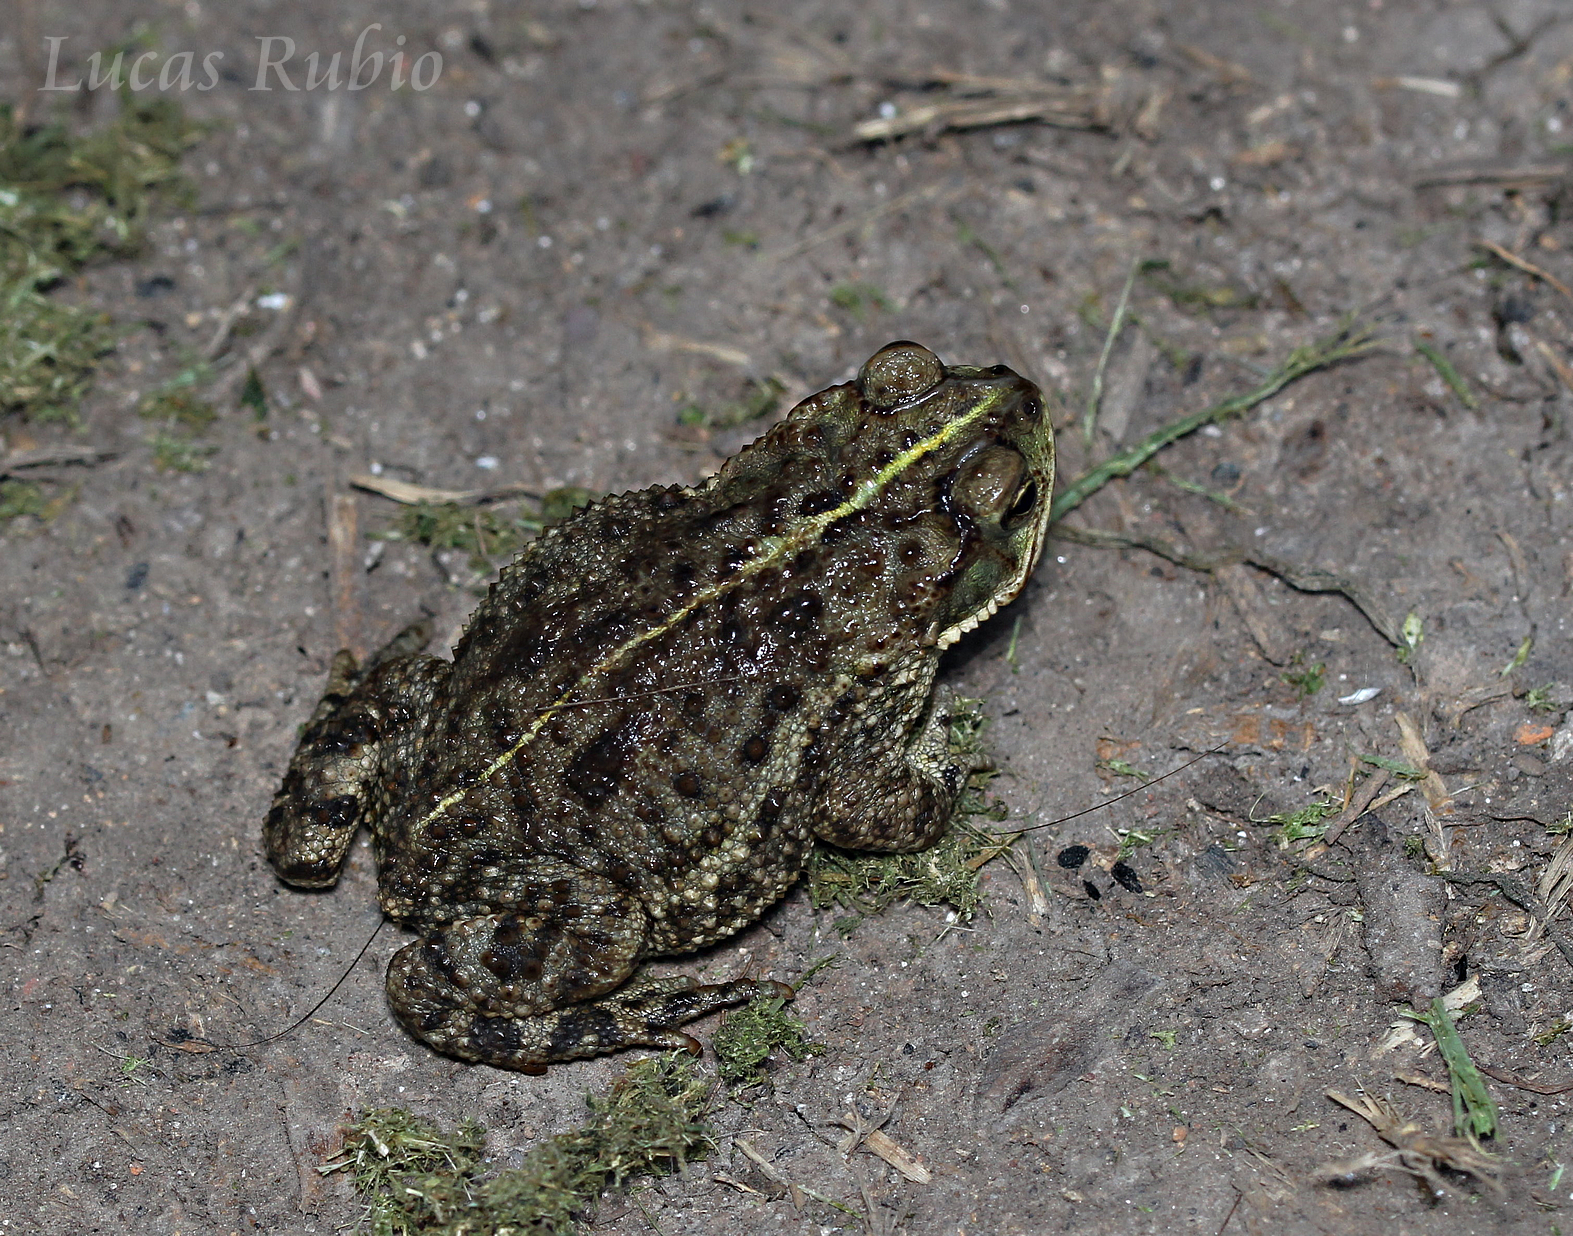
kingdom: Animalia
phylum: Chordata
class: Amphibia
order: Anura
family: Bufonidae
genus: Rhinella
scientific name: Rhinella dorbignyi
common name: D´orbigny’s toad
